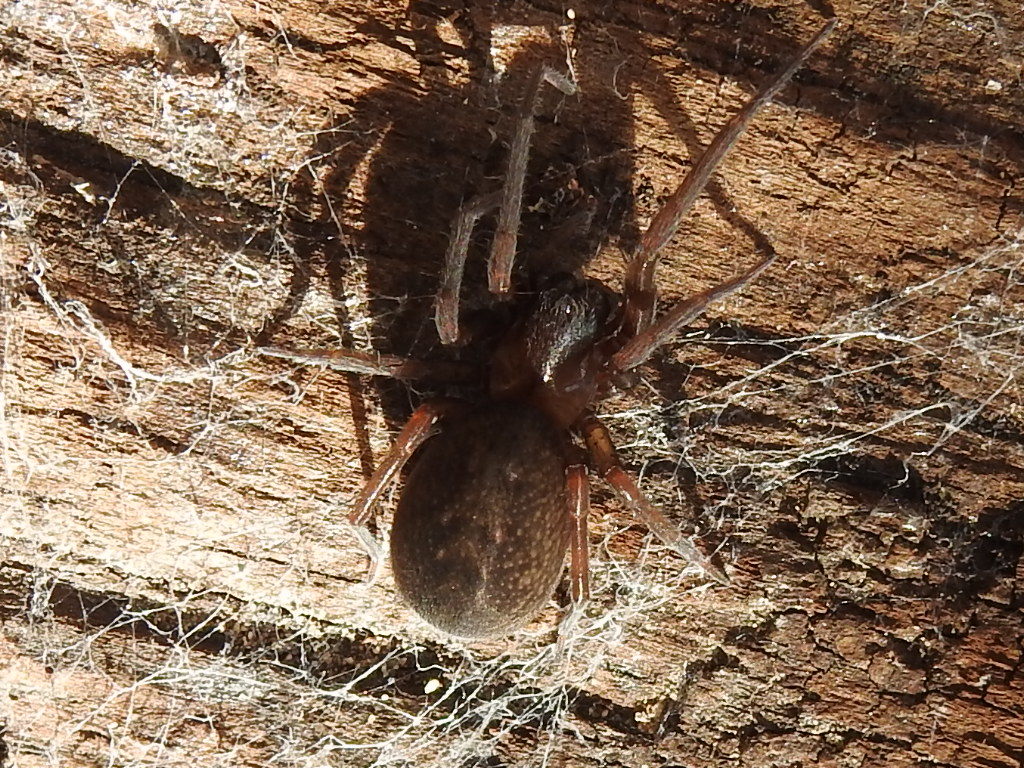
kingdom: Animalia
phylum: Arthropoda
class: Arachnida
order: Araneae
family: Desidae
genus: Metaltella
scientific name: Metaltella simoni
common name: Cribellate spider
